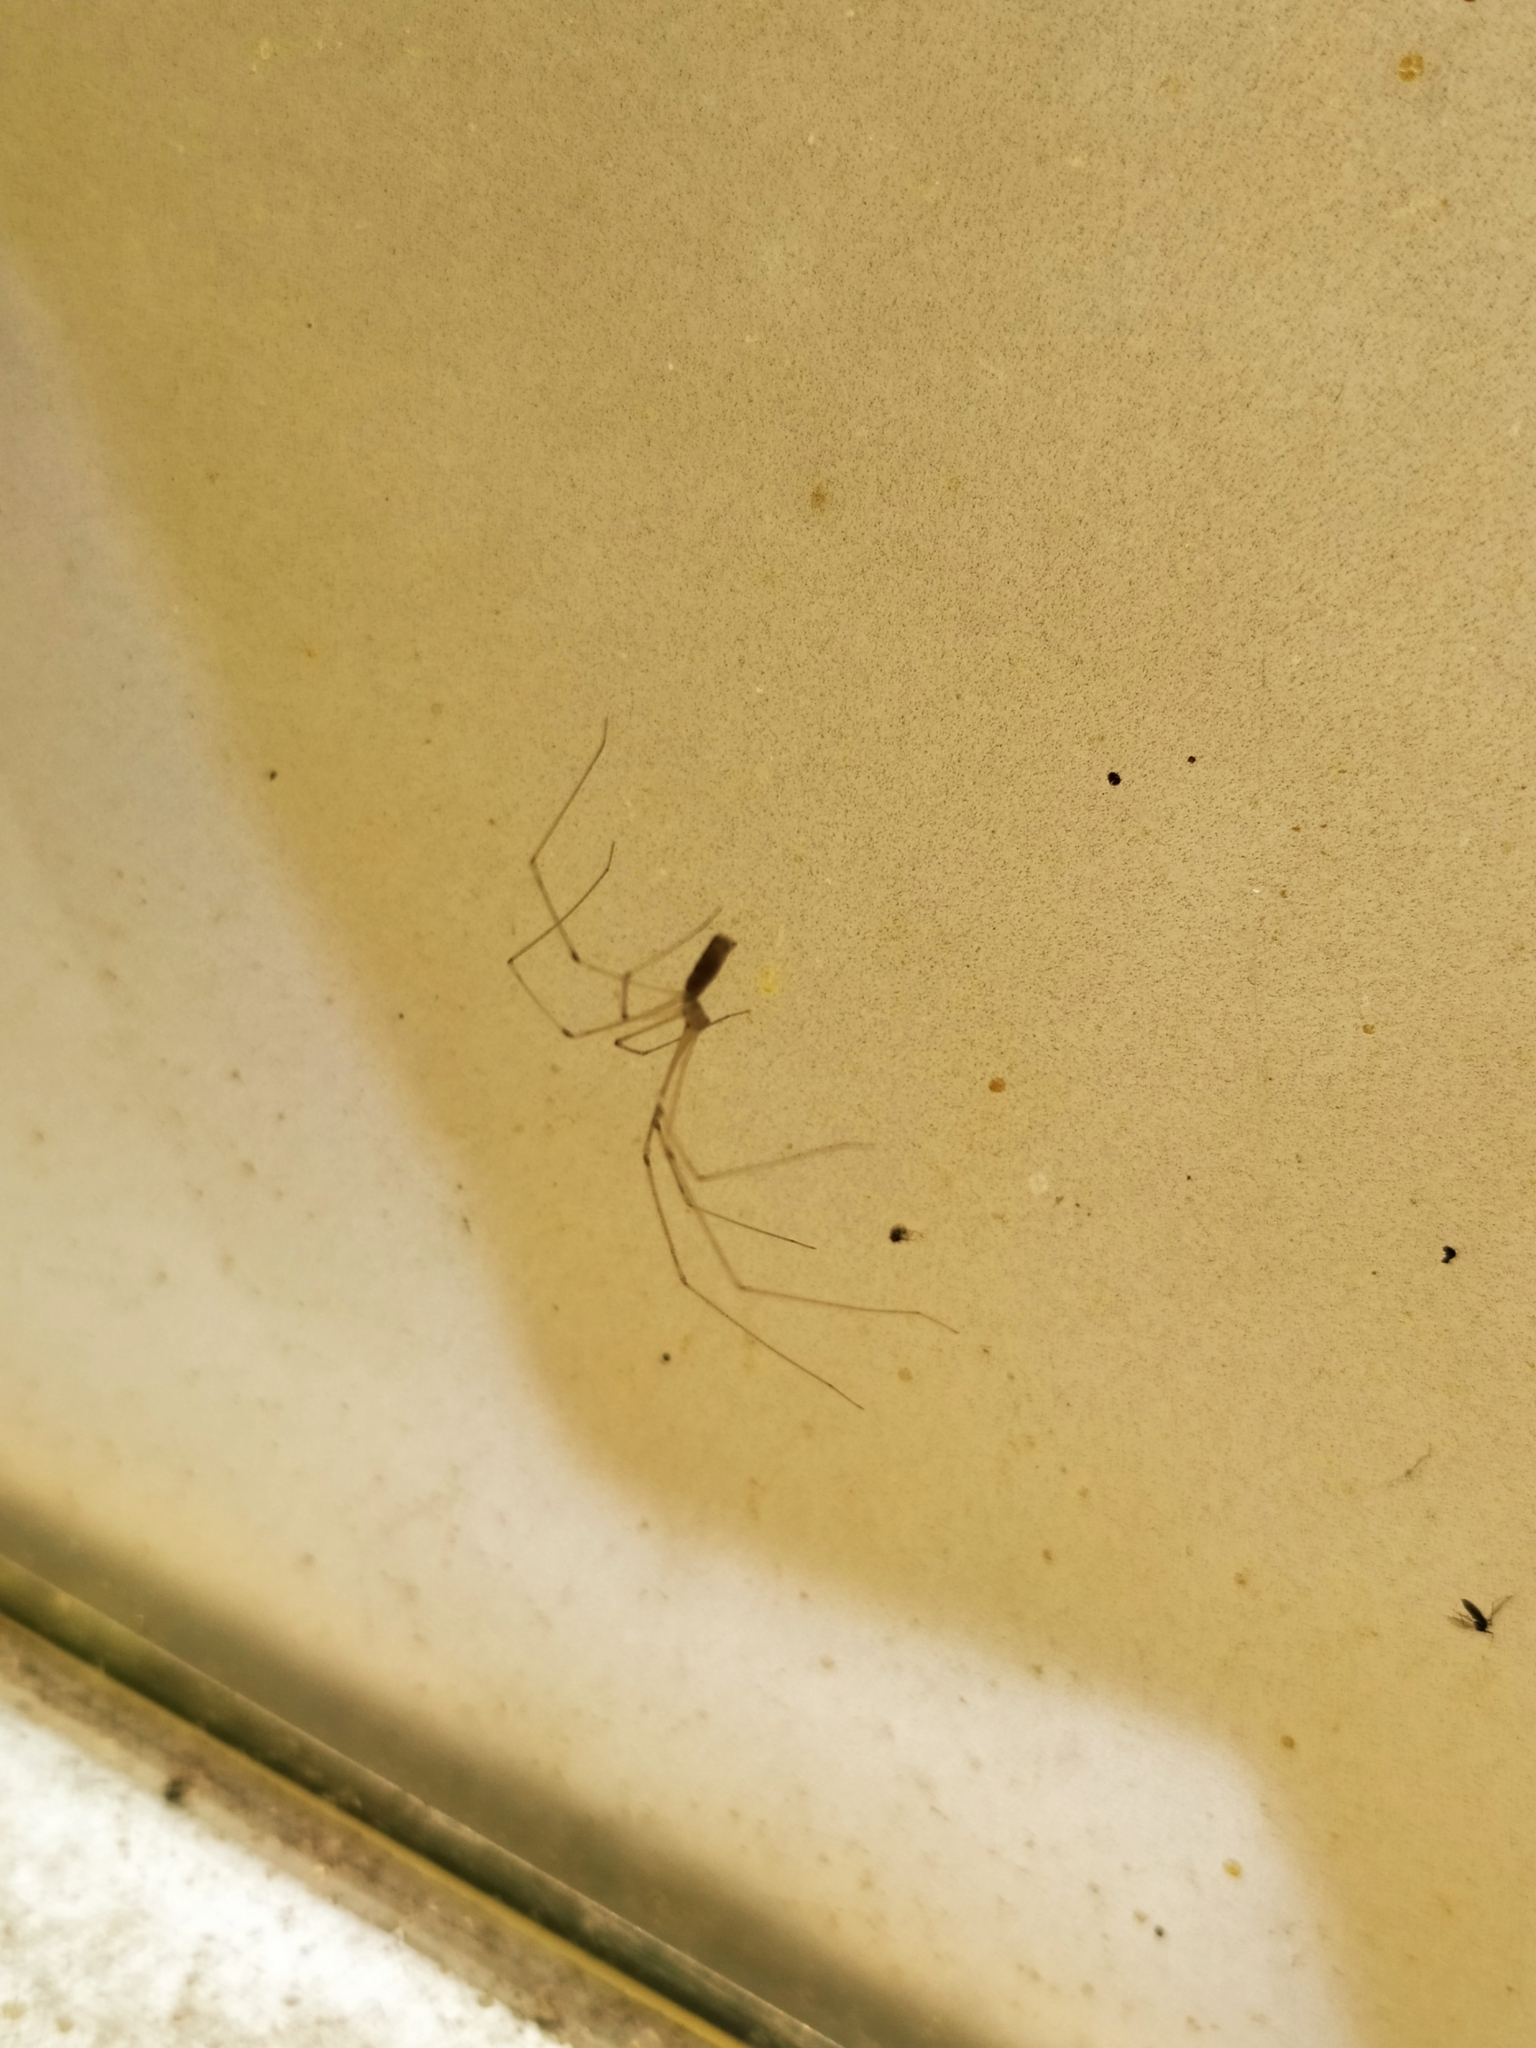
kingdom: Animalia
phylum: Arthropoda
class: Arachnida
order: Araneae
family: Pholcidae
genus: Pholcus
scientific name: Pholcus phalangioides
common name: Longbodied cellar spider
